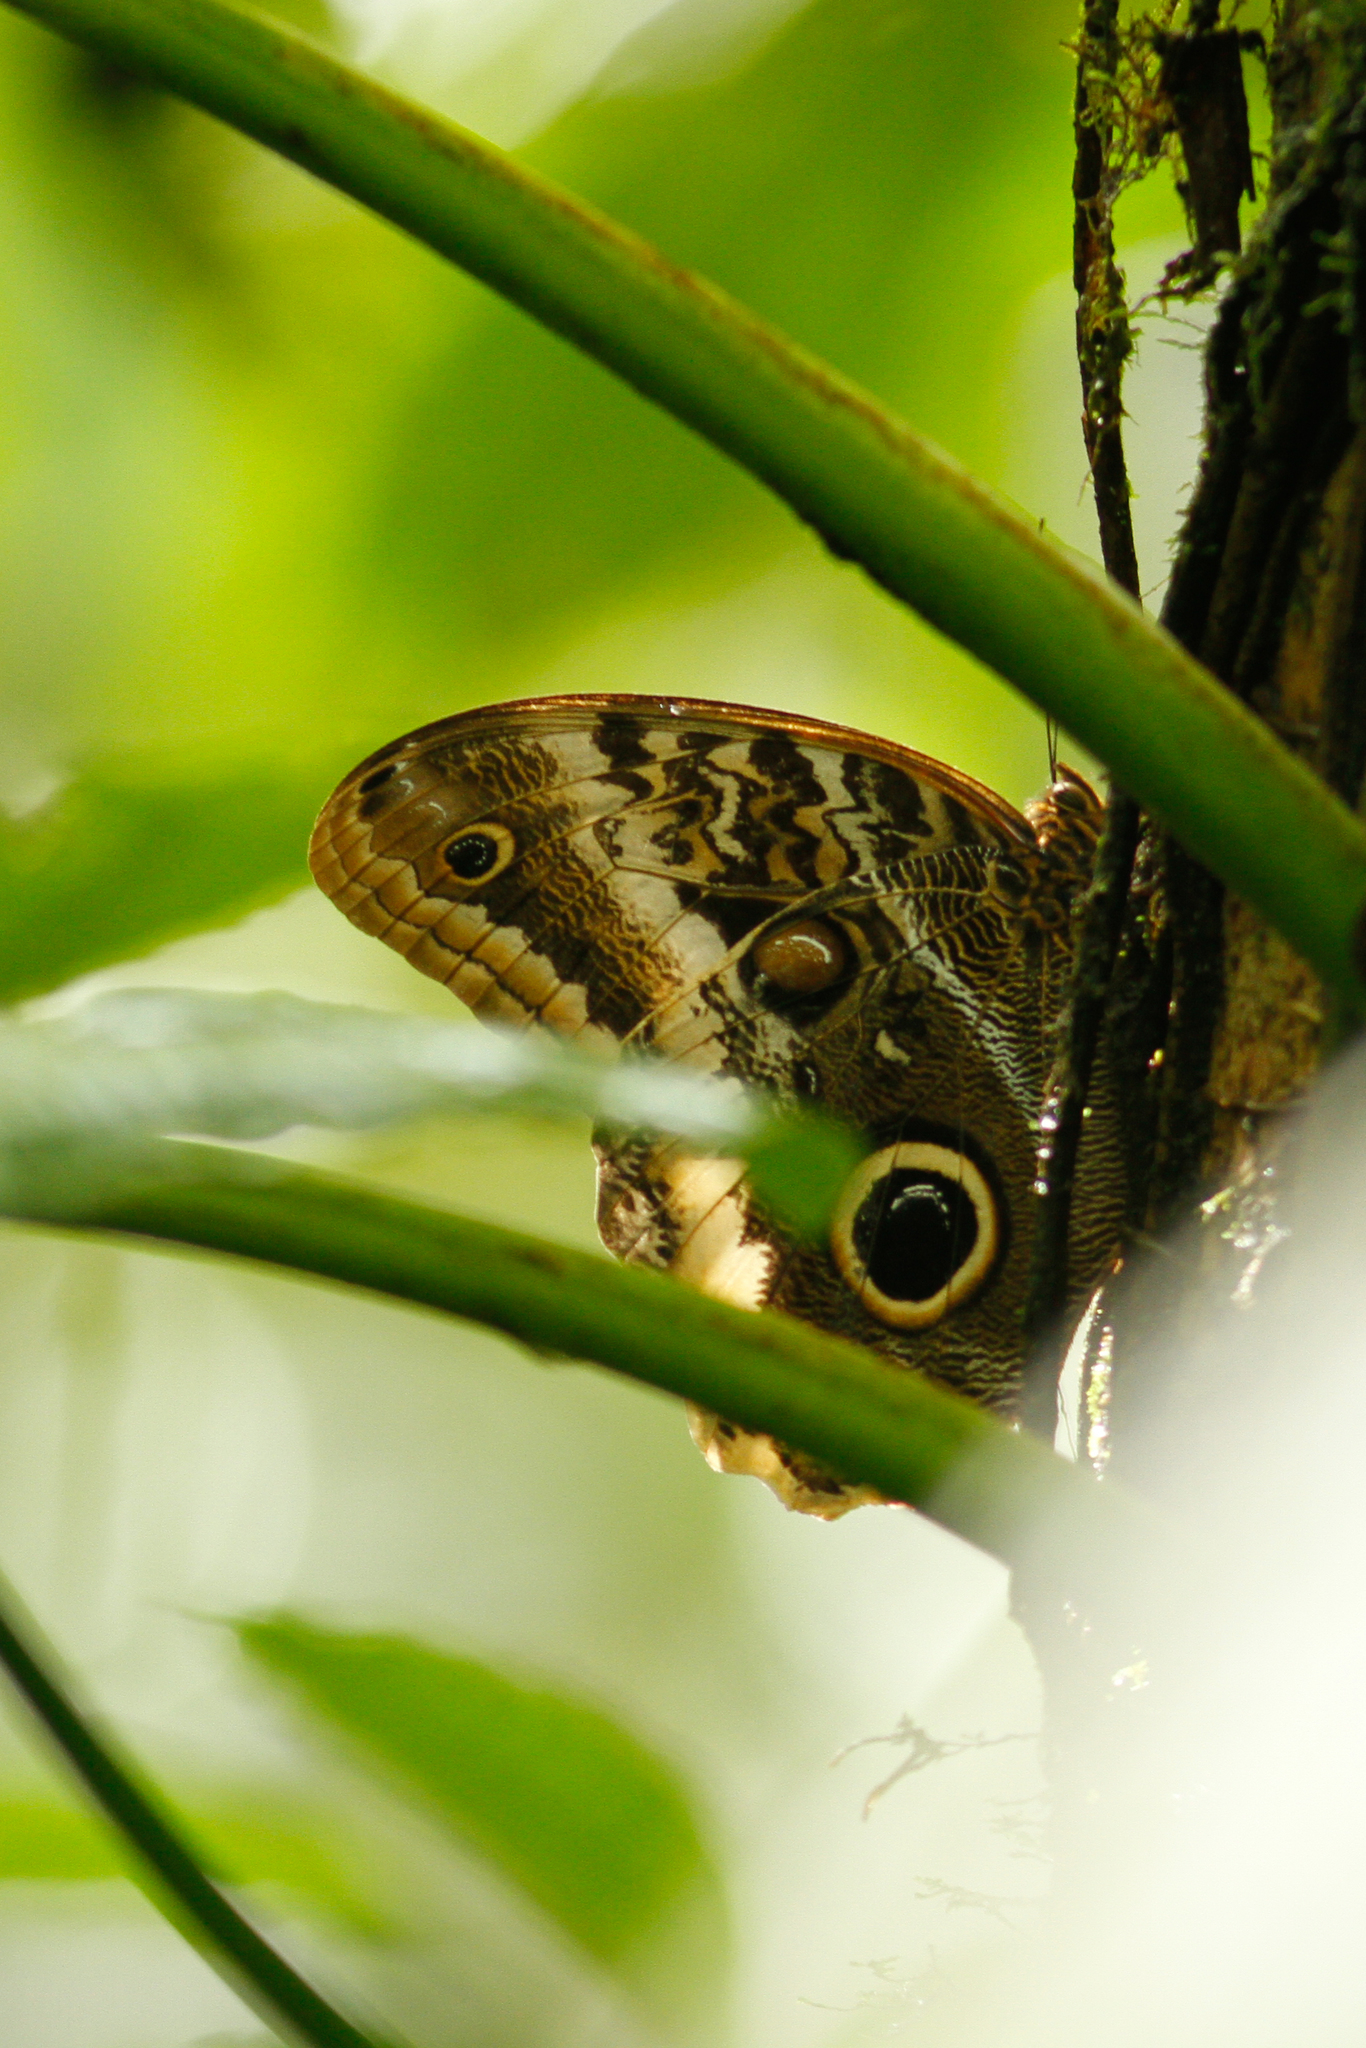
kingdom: Animalia
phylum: Arthropoda
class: Insecta
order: Lepidoptera
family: Nymphalidae
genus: Caligo
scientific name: Caligo atreus
